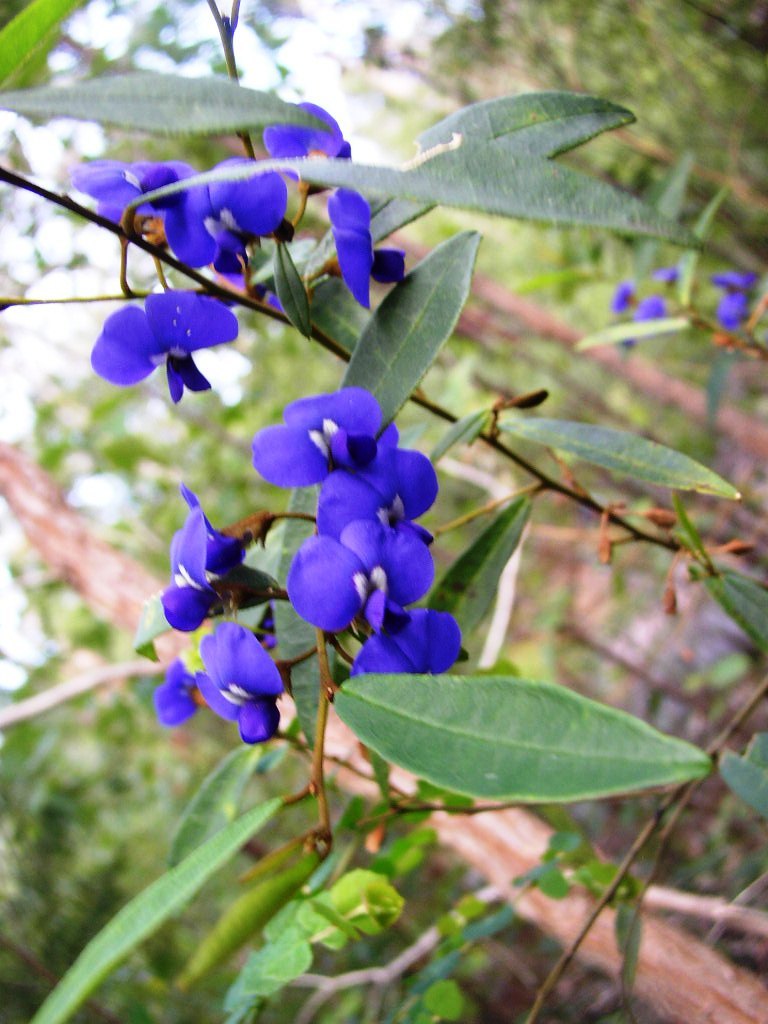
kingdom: Plantae
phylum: Tracheophyta
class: Magnoliopsida
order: Fabales
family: Fabaceae
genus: Hovea
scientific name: Hovea elliptica
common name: Tree hovea
